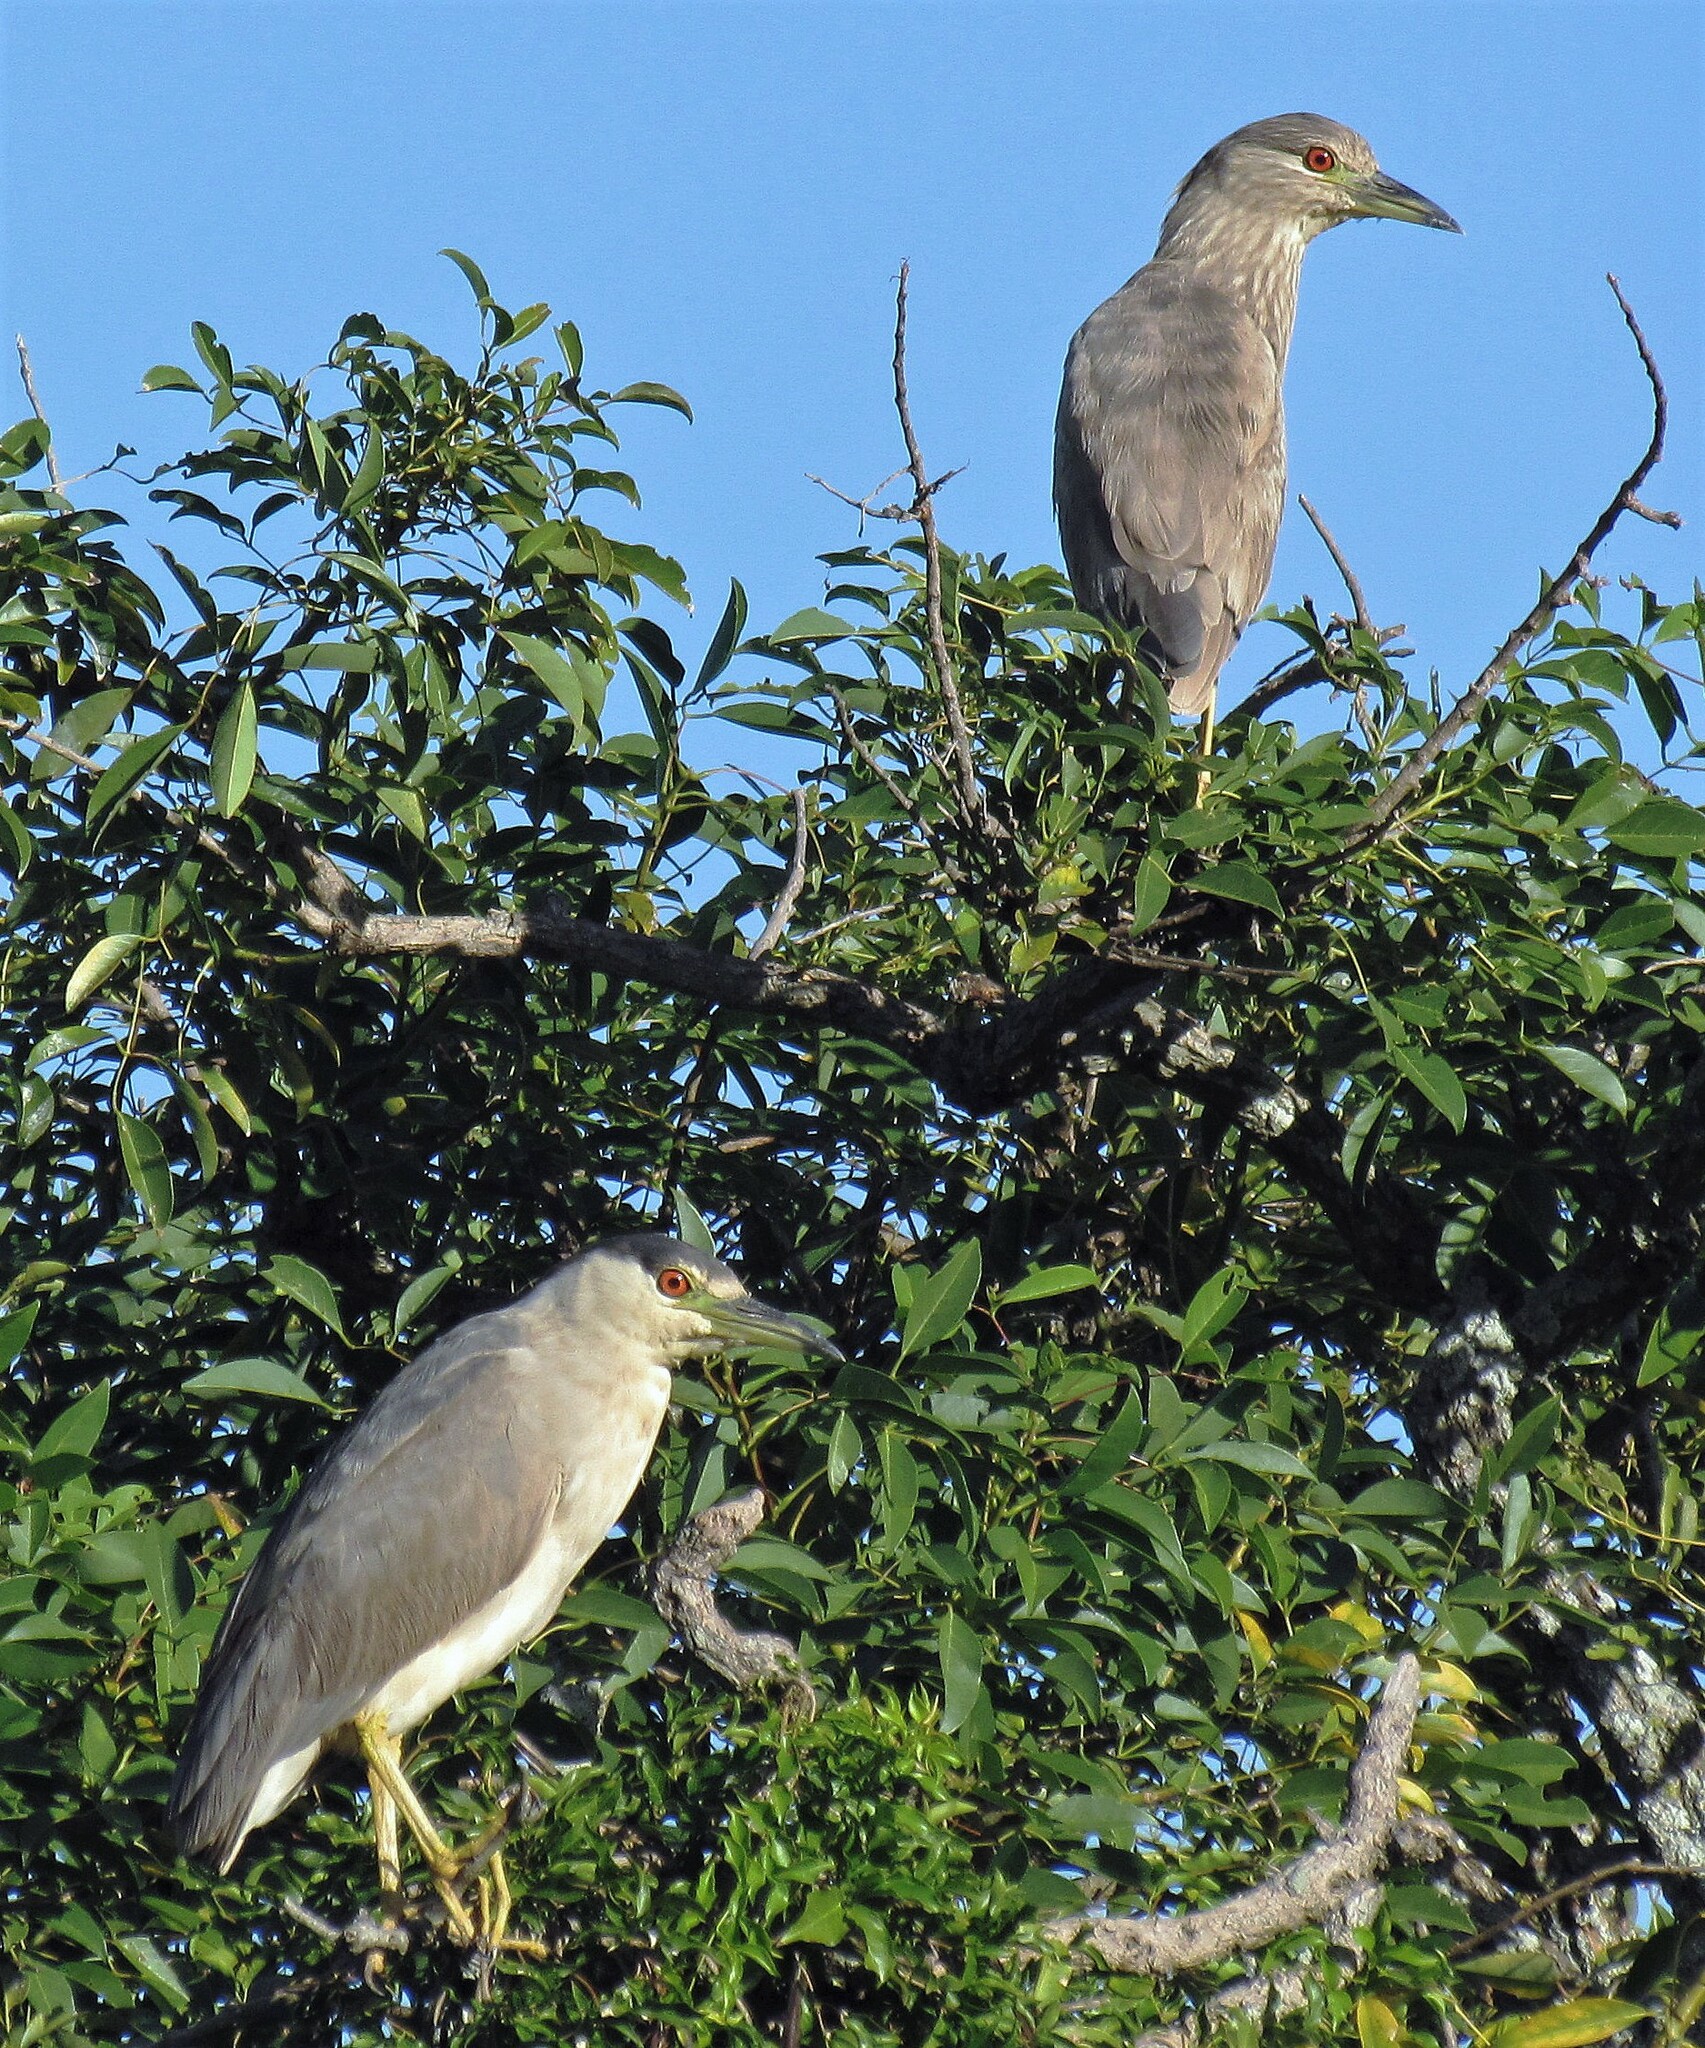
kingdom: Animalia
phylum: Chordata
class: Aves
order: Pelecaniformes
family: Ardeidae
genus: Nycticorax
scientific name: Nycticorax nycticorax
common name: Black-crowned night heron
